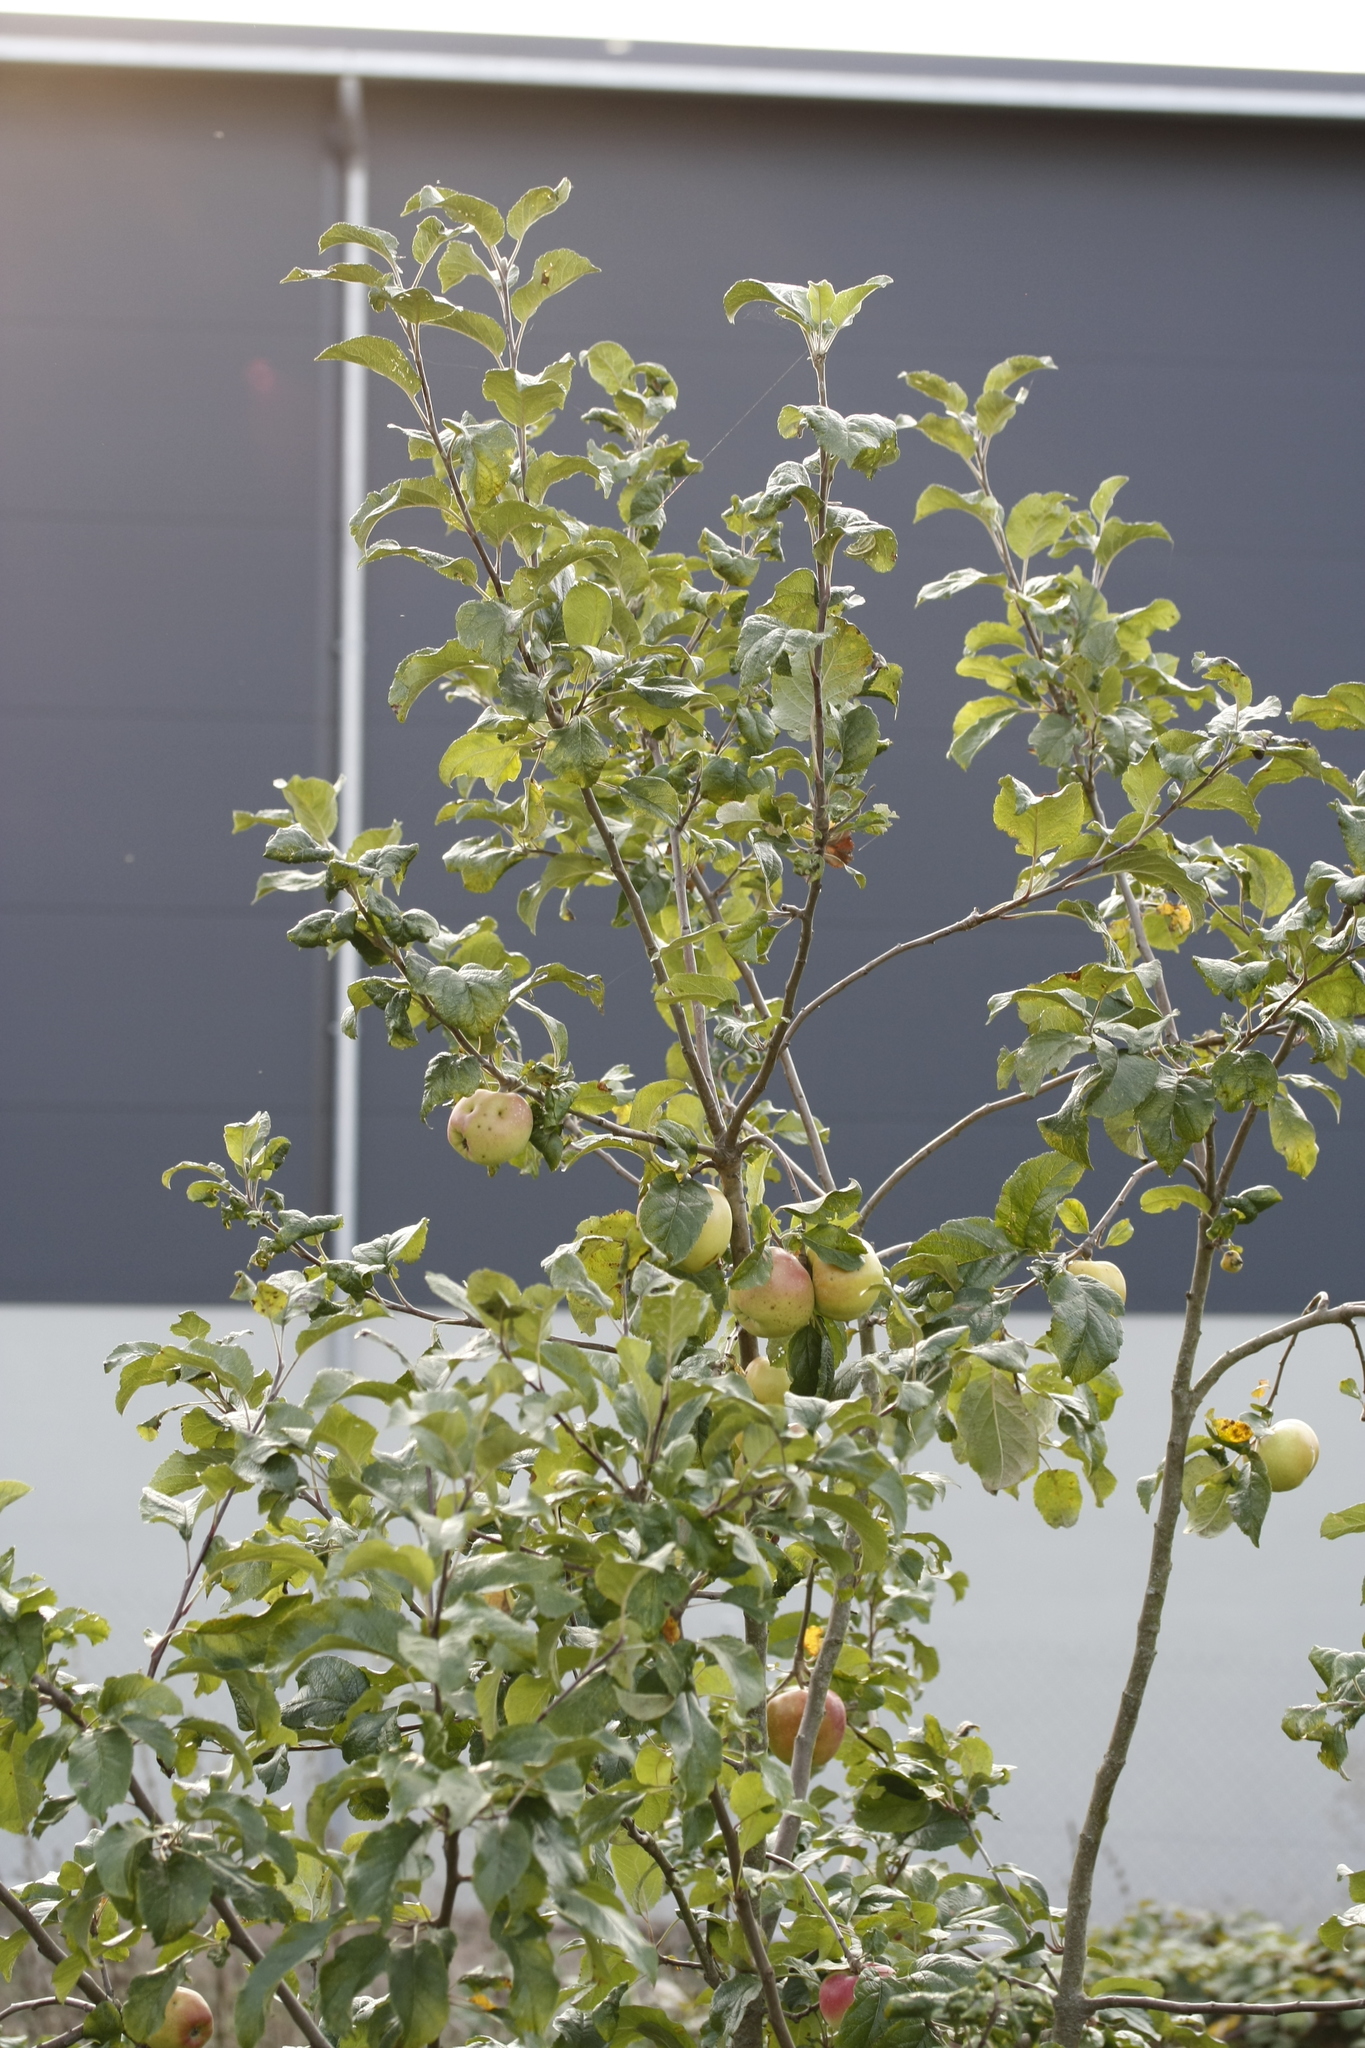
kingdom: Plantae
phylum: Tracheophyta
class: Magnoliopsida
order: Rosales
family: Rosaceae
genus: Malus
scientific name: Malus domestica
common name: Apple
